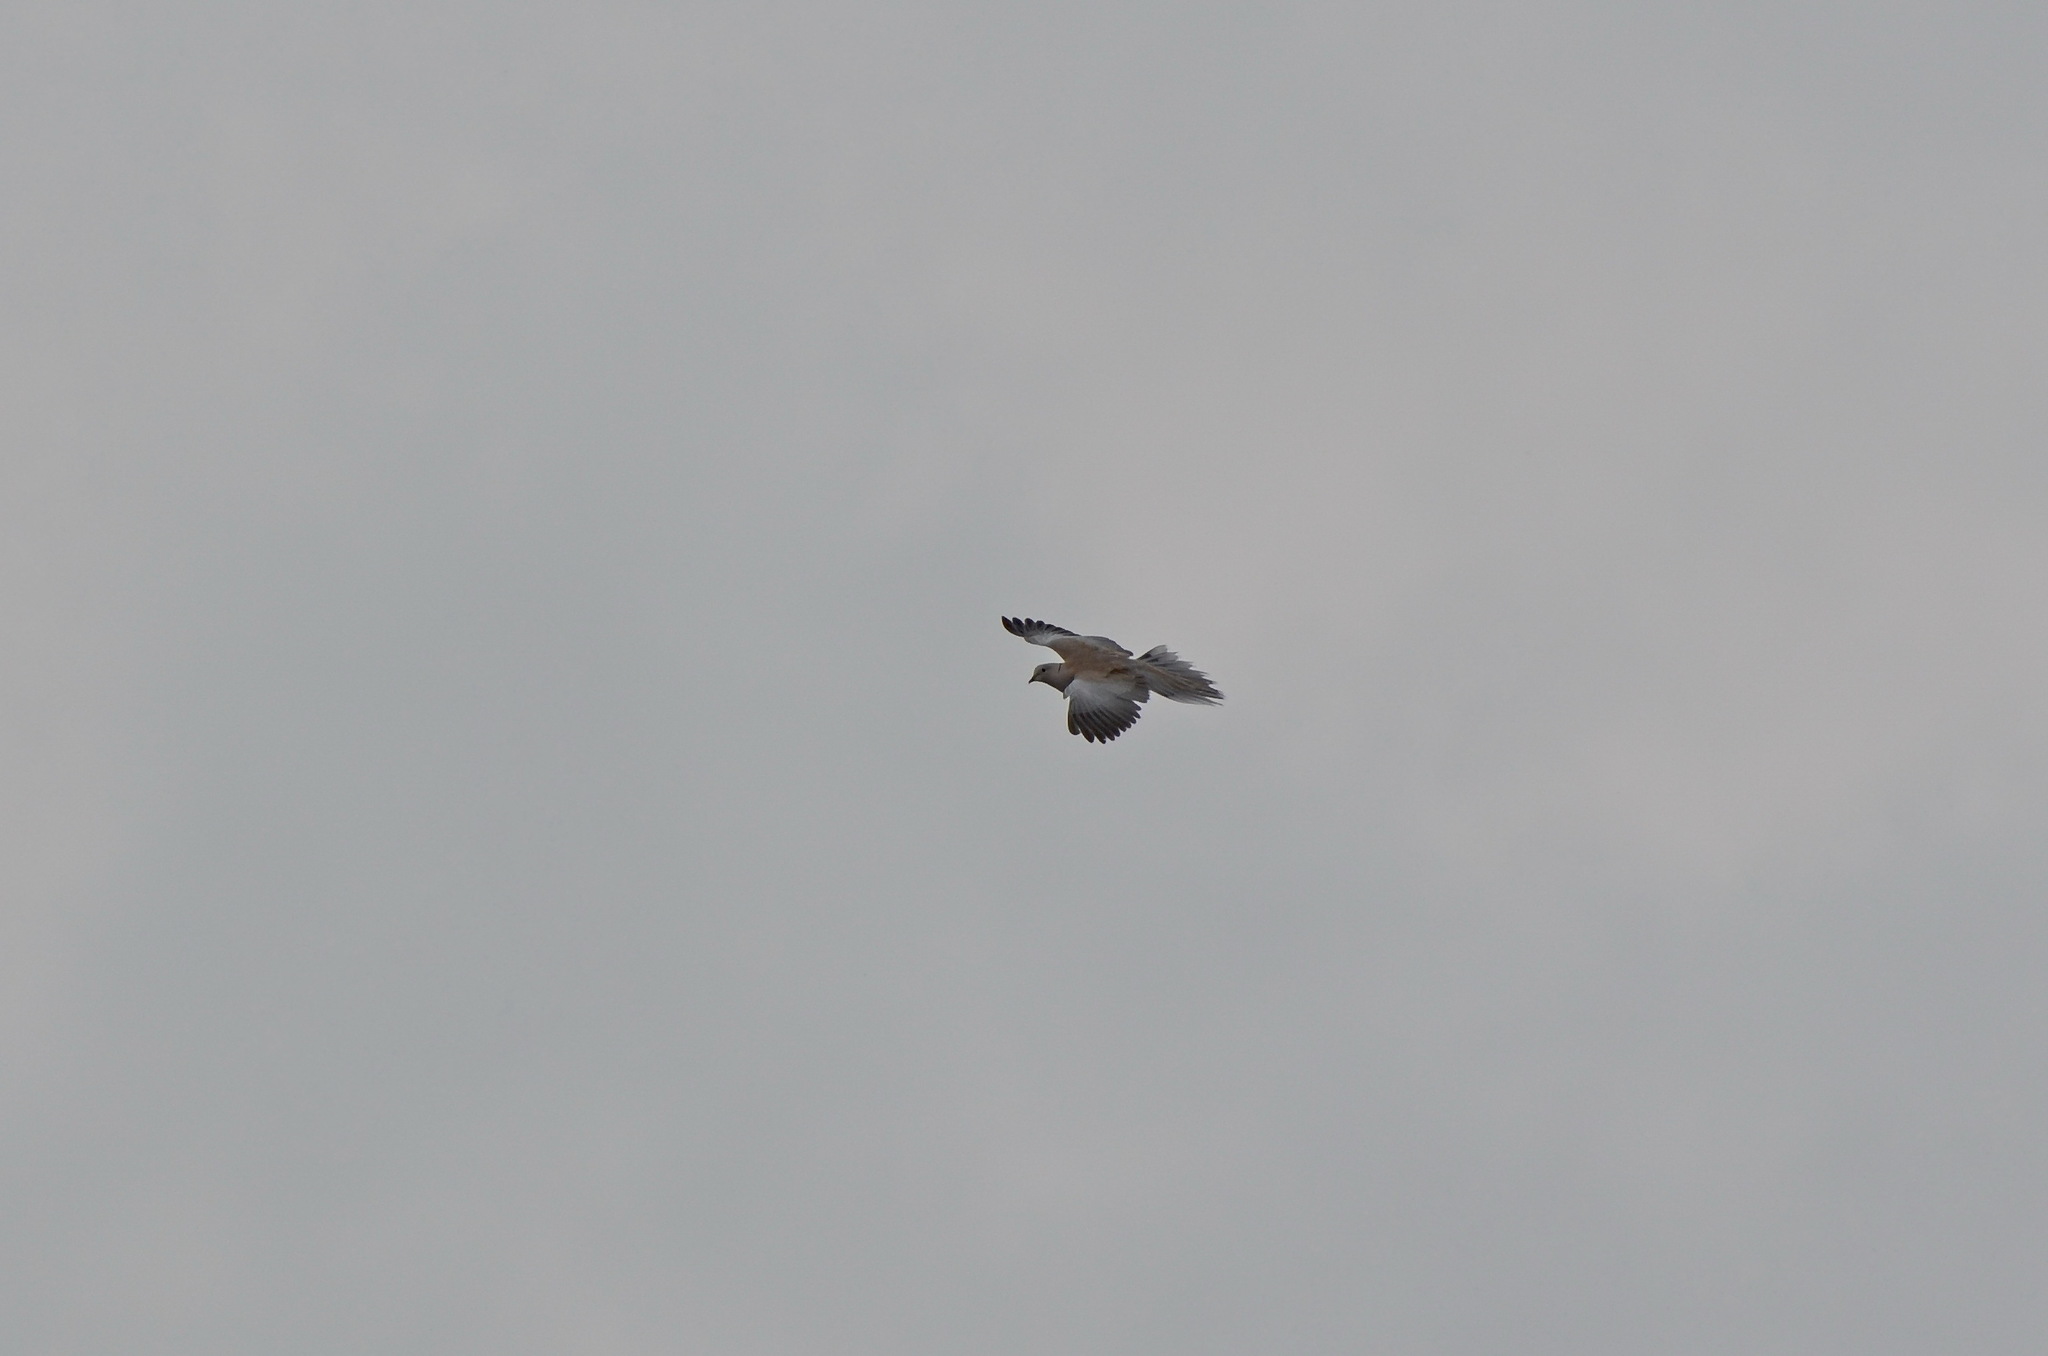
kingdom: Animalia
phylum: Chordata
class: Aves
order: Columbiformes
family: Columbidae
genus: Streptopelia
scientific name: Streptopelia decaocto
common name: Eurasian collared dove
